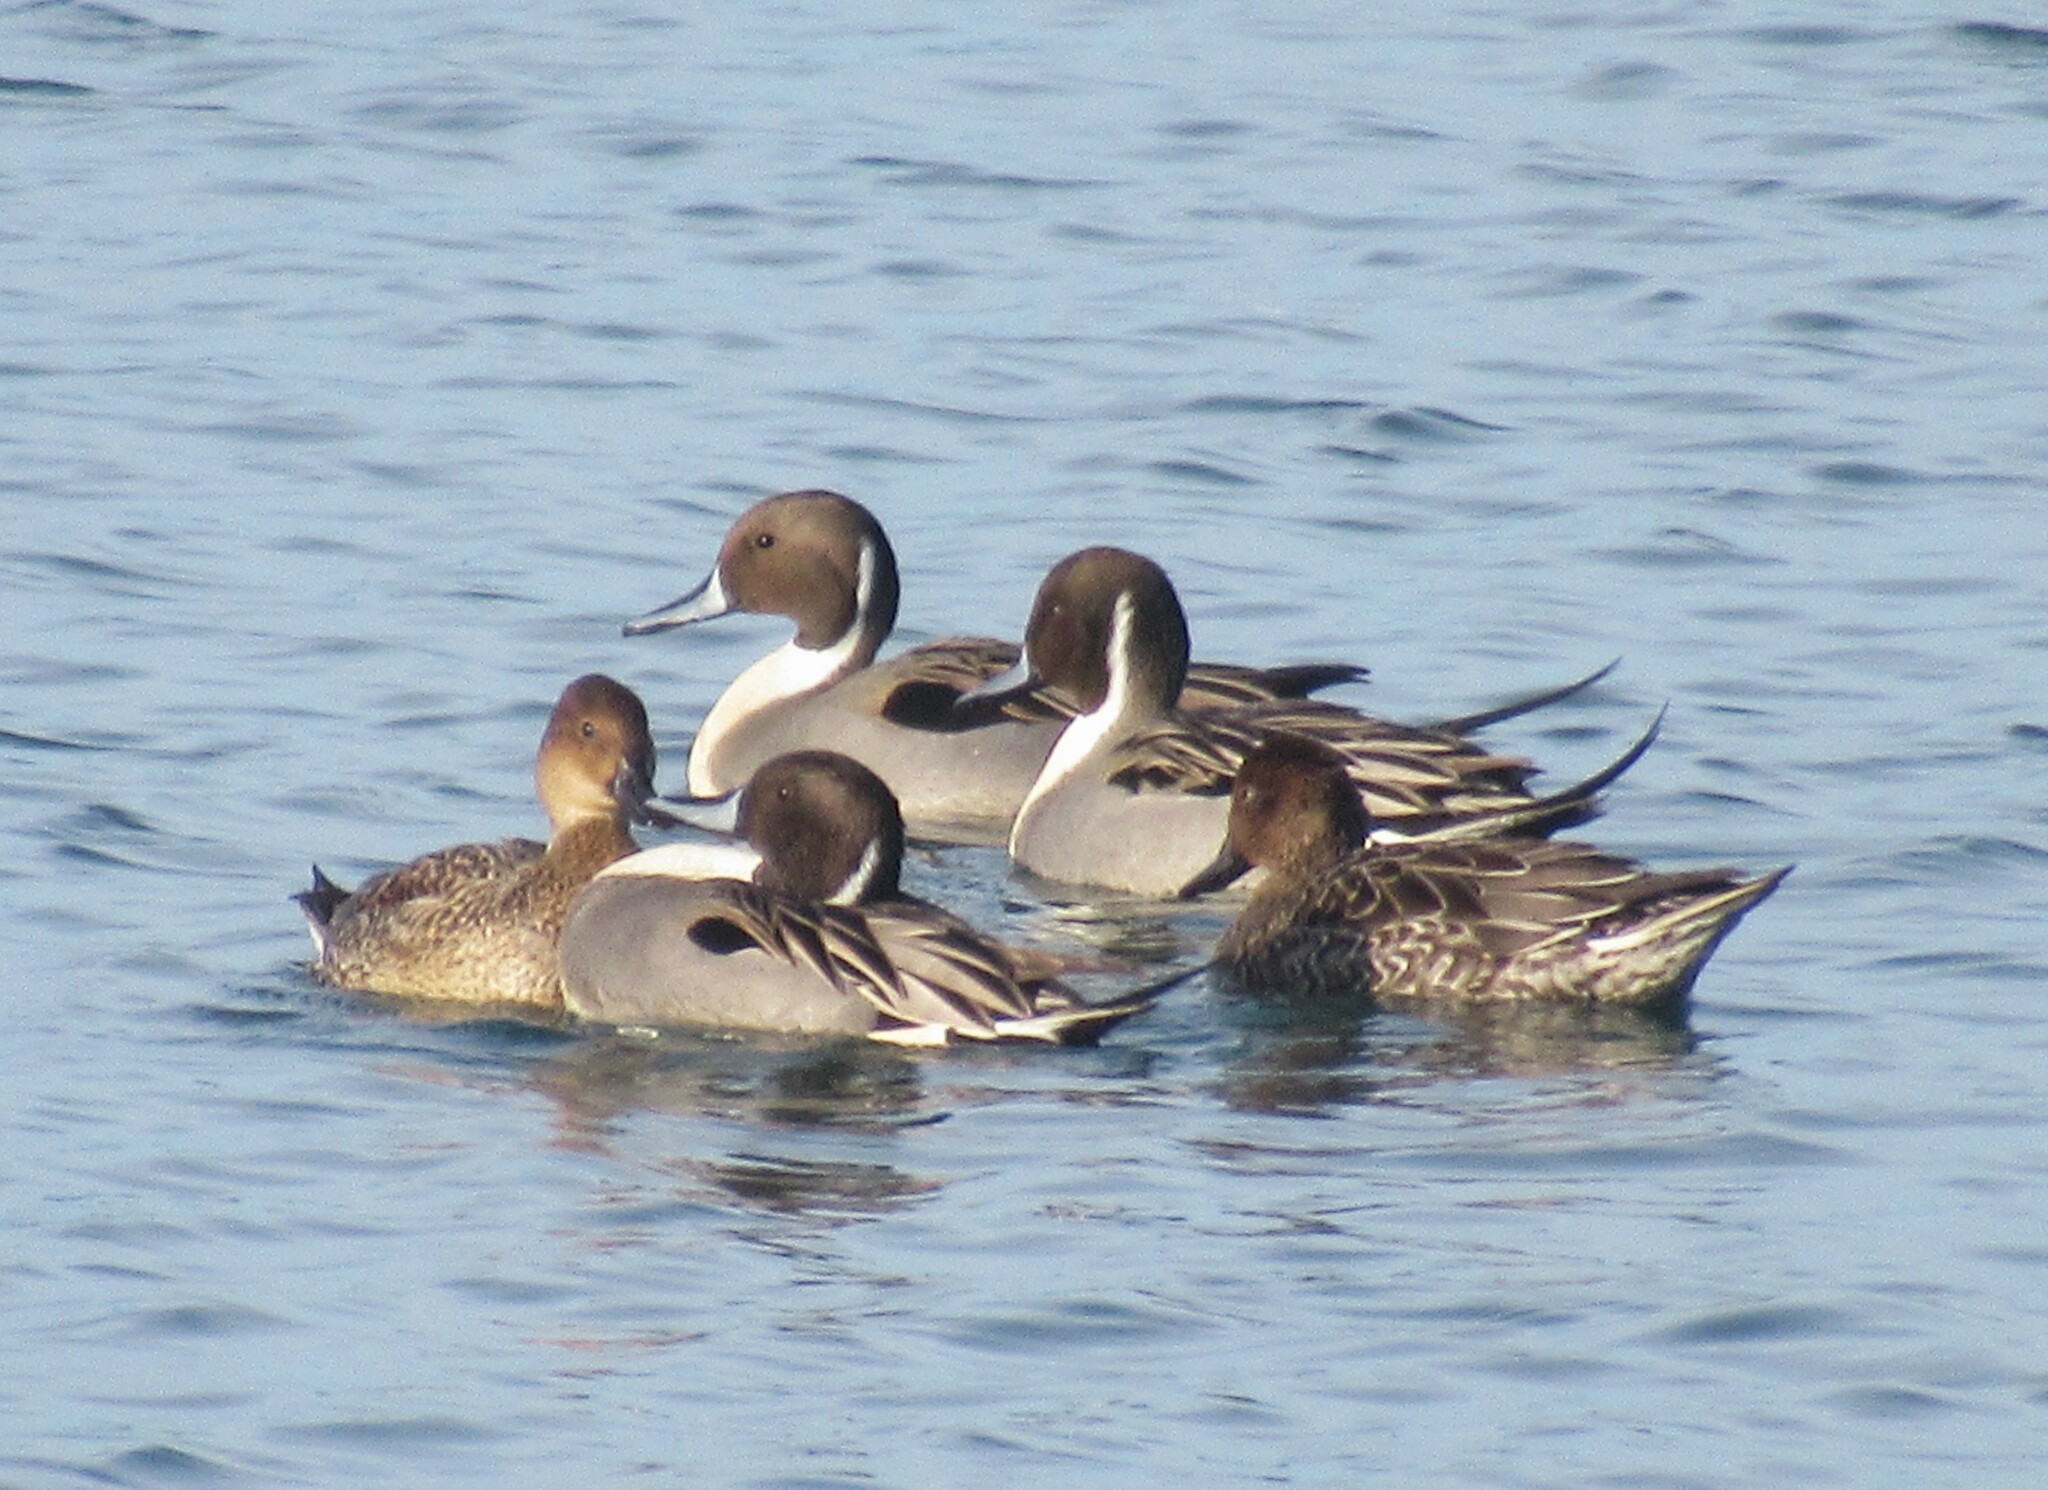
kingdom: Animalia
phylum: Chordata
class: Aves
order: Anseriformes
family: Anatidae
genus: Anas
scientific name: Anas acuta
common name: Northern pintail
